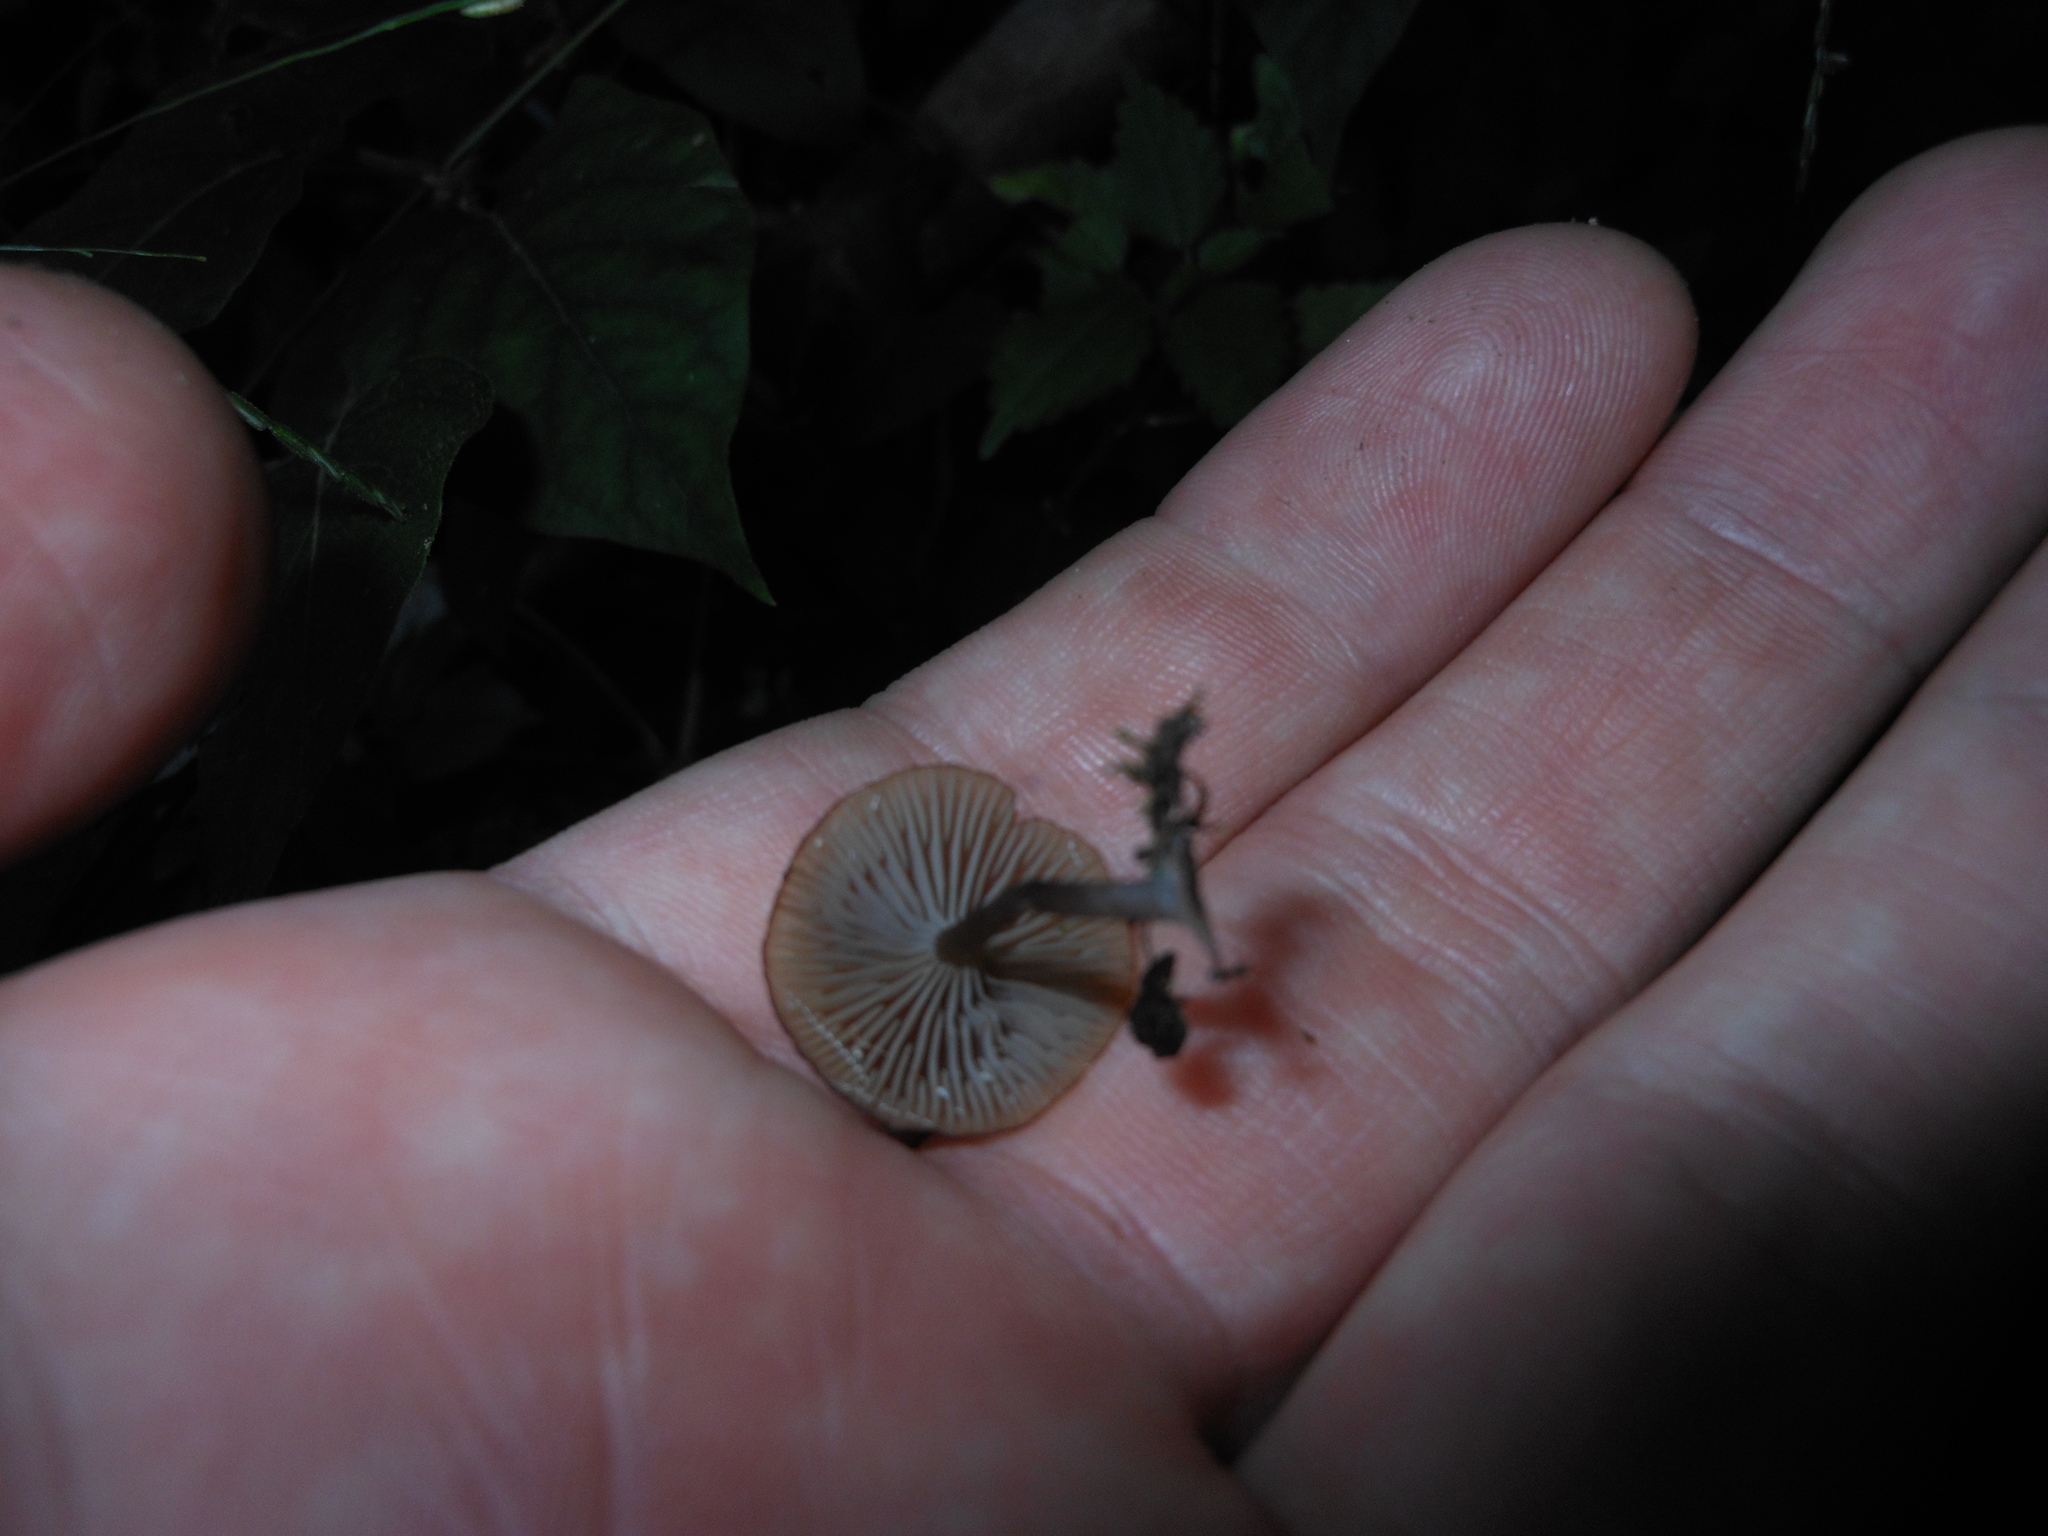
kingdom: Fungi
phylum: Basidiomycota
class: Agaricomycetes
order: Agaricales
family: Hygrophoraceae
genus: Arrhenia
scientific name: Arrhenia epichysium
